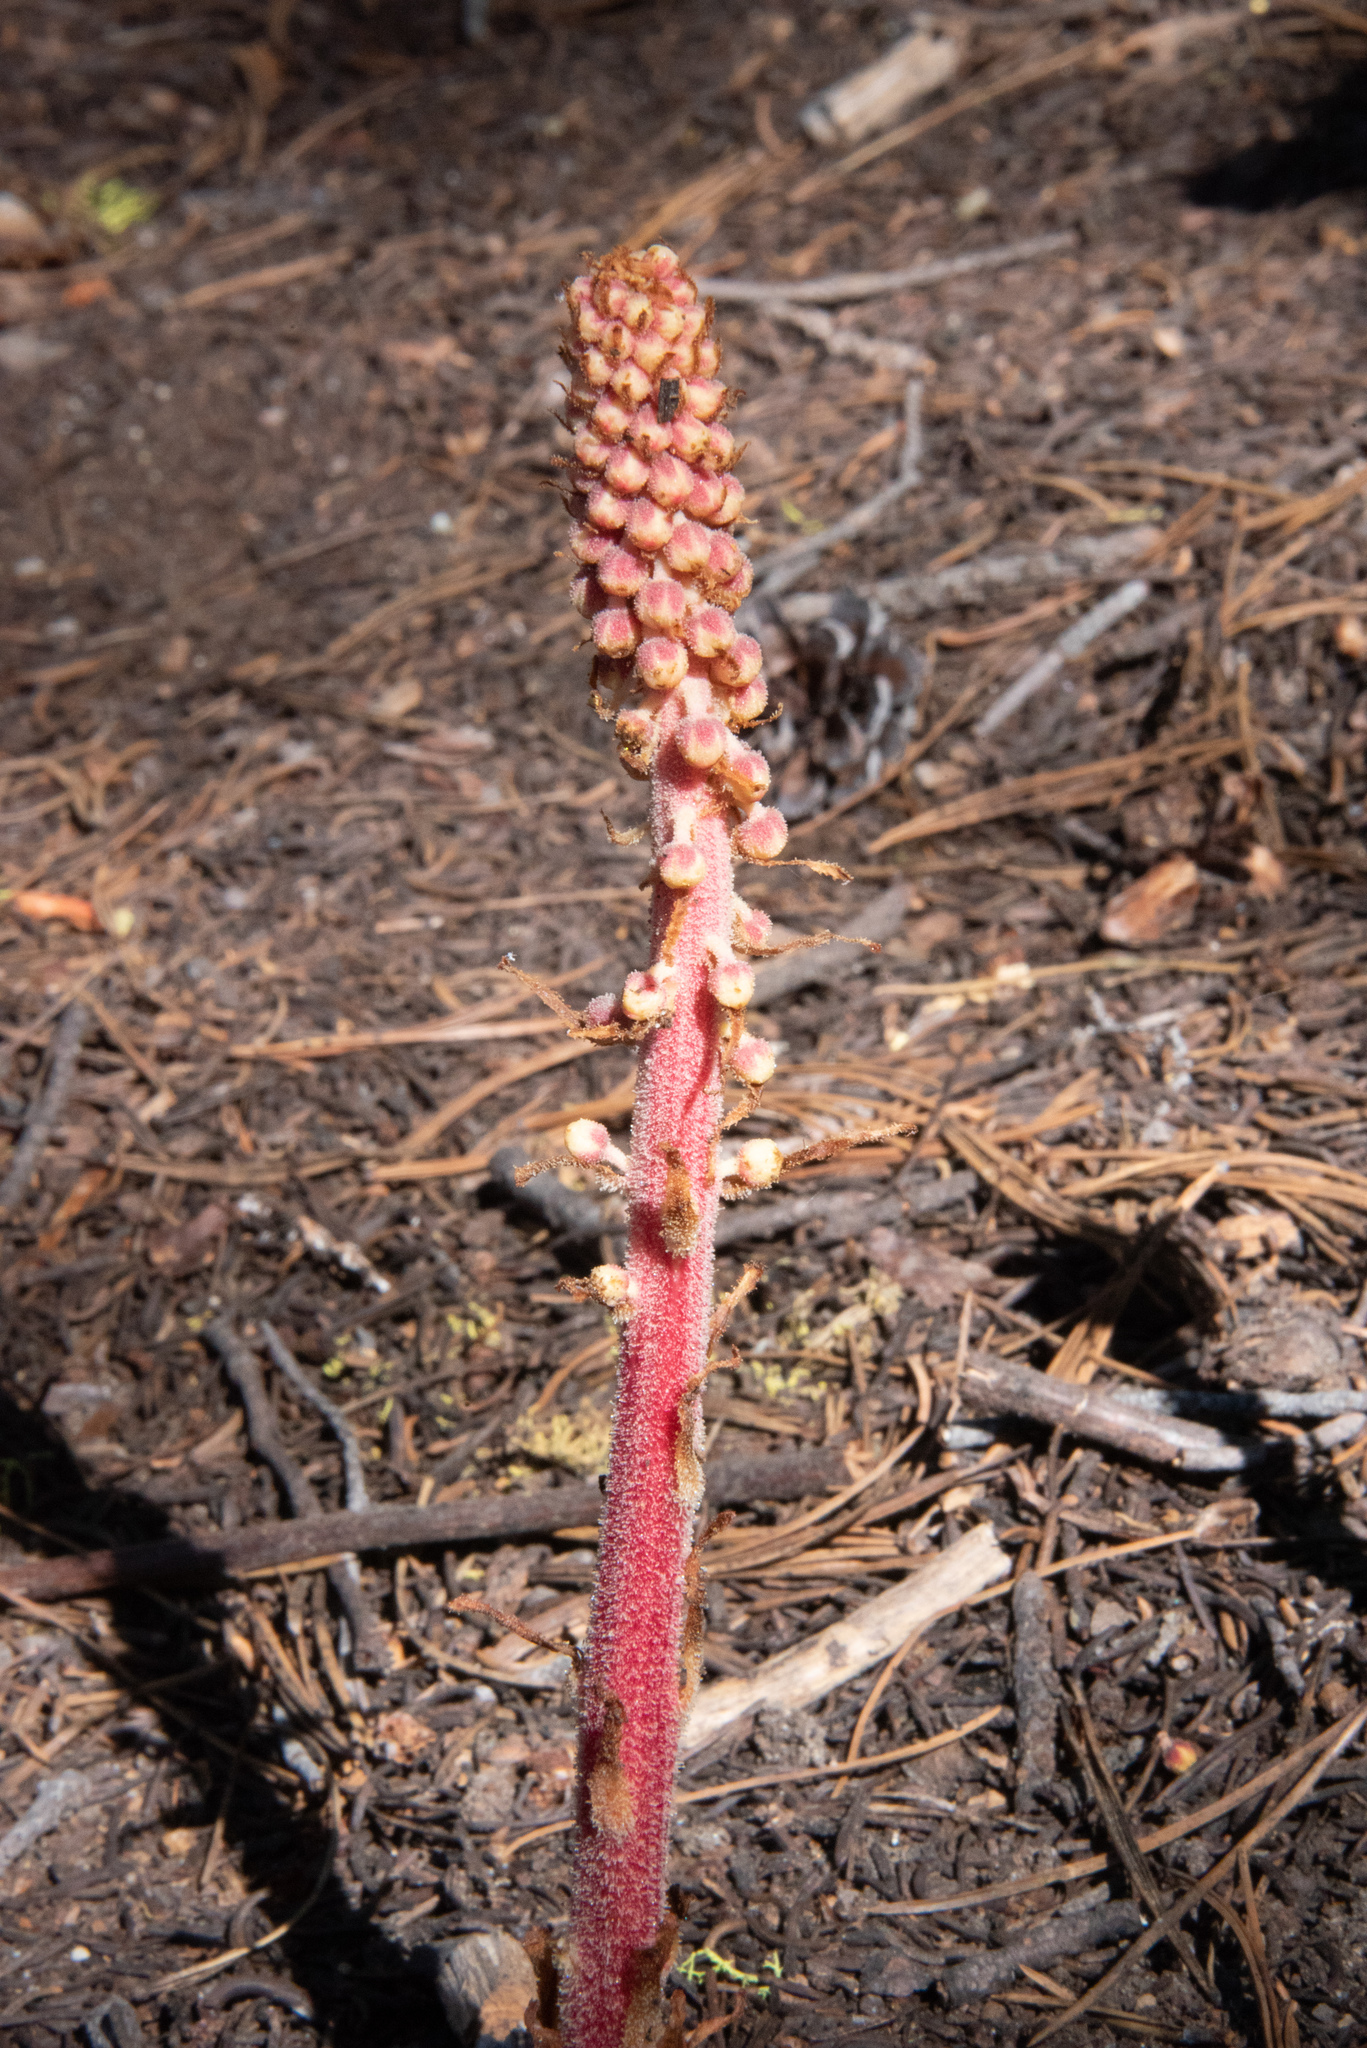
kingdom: Plantae
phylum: Tracheophyta
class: Magnoliopsida
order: Ericales
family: Ericaceae
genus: Pterospora
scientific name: Pterospora andromedea
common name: Giant bird's-nest
